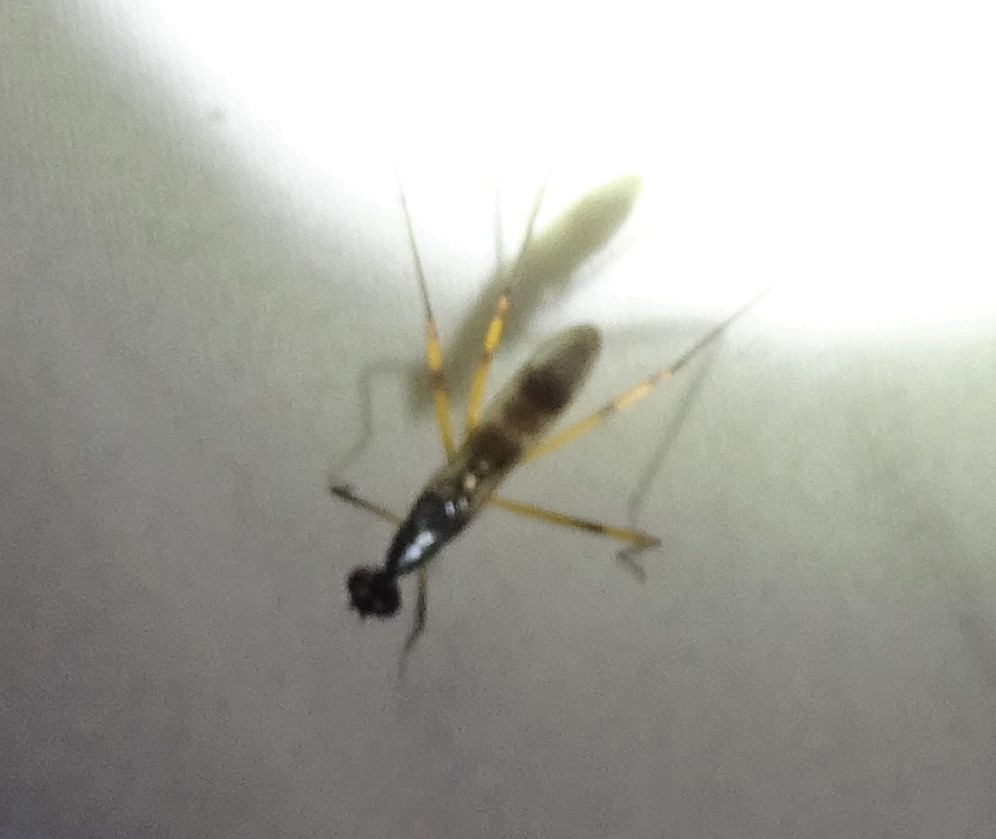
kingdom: Animalia
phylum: Arthropoda
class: Insecta
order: Diptera
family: Micropezidae
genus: Rainieria
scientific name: Rainieria antennaepes
